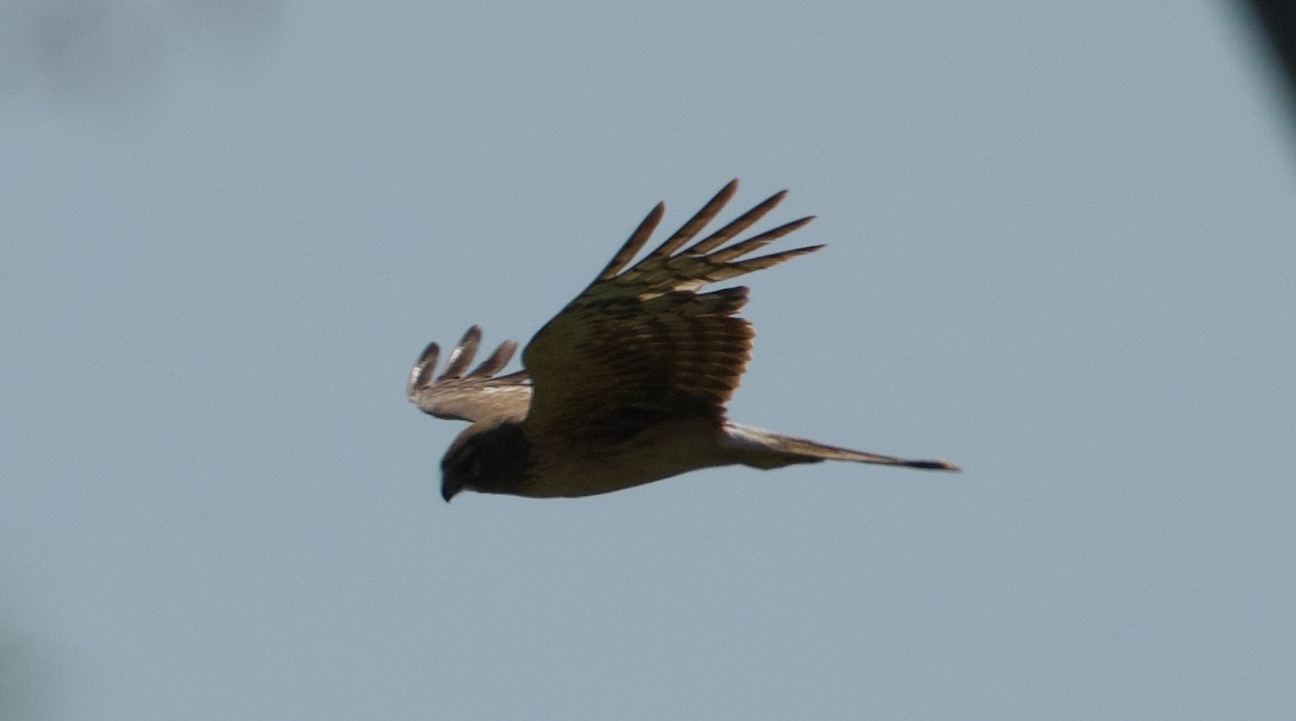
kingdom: Animalia
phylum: Chordata
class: Aves
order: Accipitriformes
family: Accipitridae
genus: Circus
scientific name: Circus cyaneus
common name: Hen harrier
